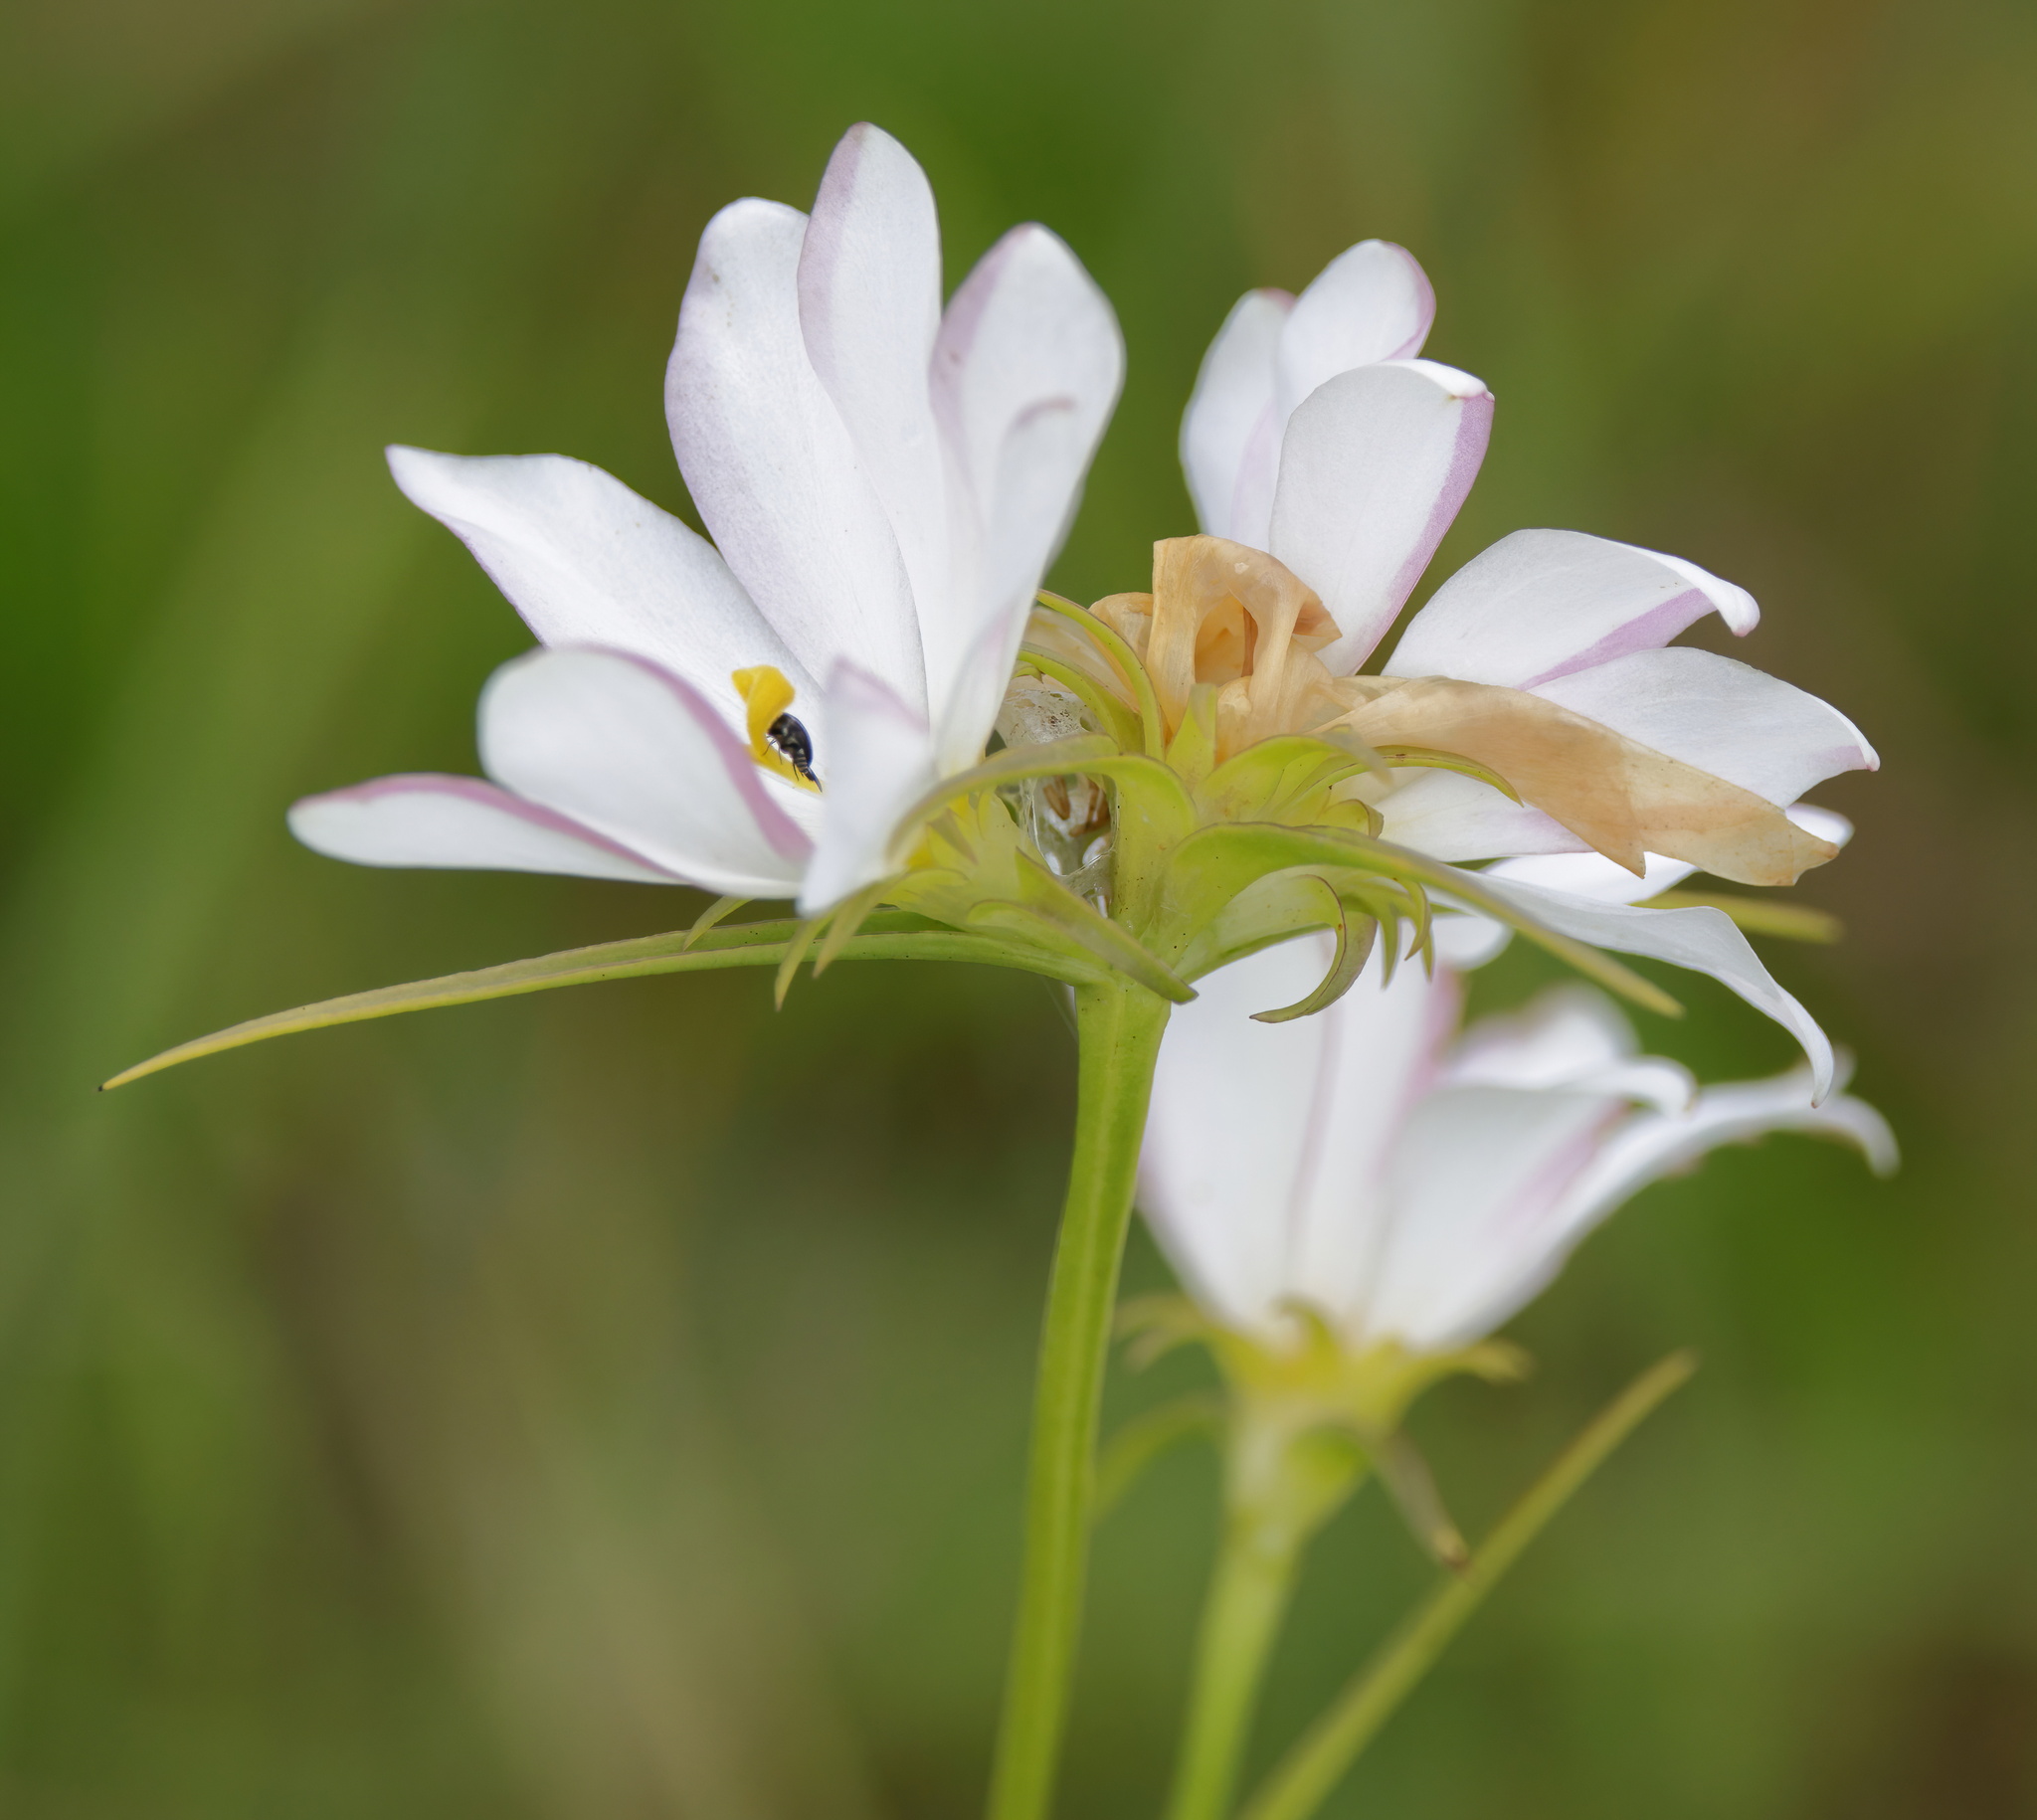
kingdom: Plantae
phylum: Tracheophyta
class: Magnoliopsida
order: Gentianales
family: Gentianaceae
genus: Sabatia
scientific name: Sabatia gentianoides
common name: Pinewoods rose-gentian
